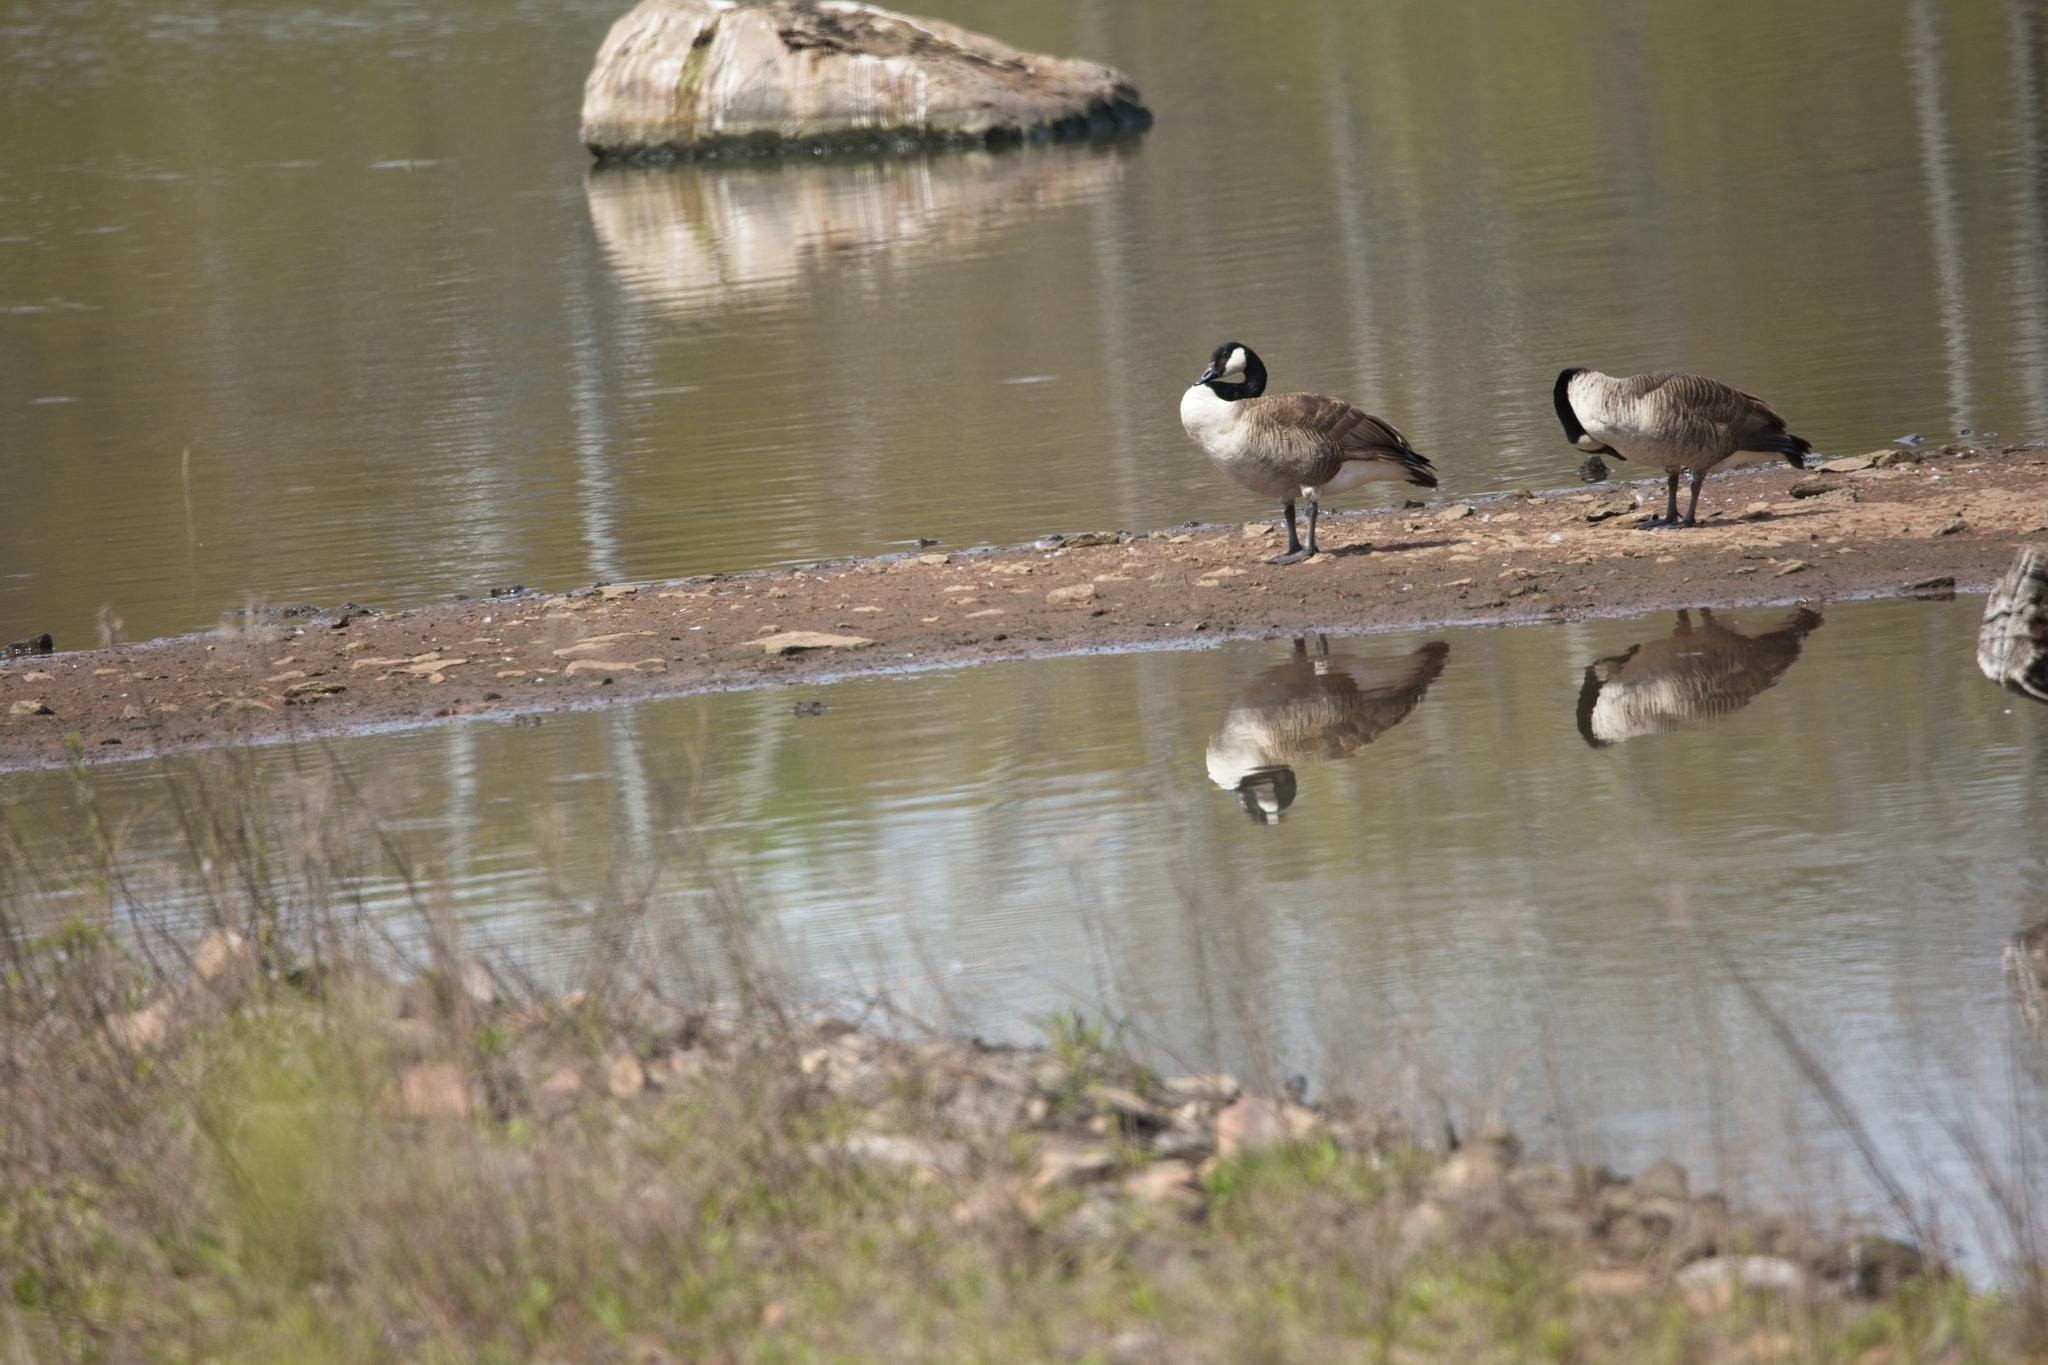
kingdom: Animalia
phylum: Chordata
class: Aves
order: Anseriformes
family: Anatidae
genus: Branta
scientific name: Branta canadensis
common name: Canada goose
